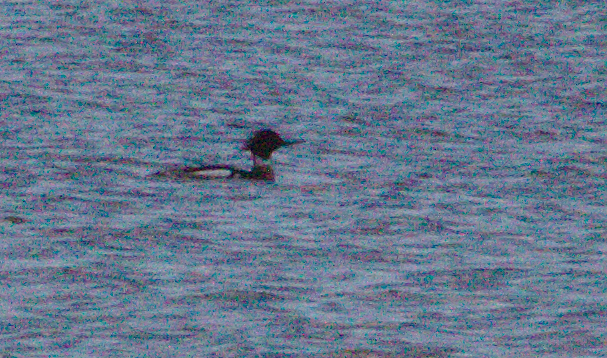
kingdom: Animalia
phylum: Chordata
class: Aves
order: Anseriformes
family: Anatidae
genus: Mergus
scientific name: Mergus serrator
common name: Red-breasted merganser
